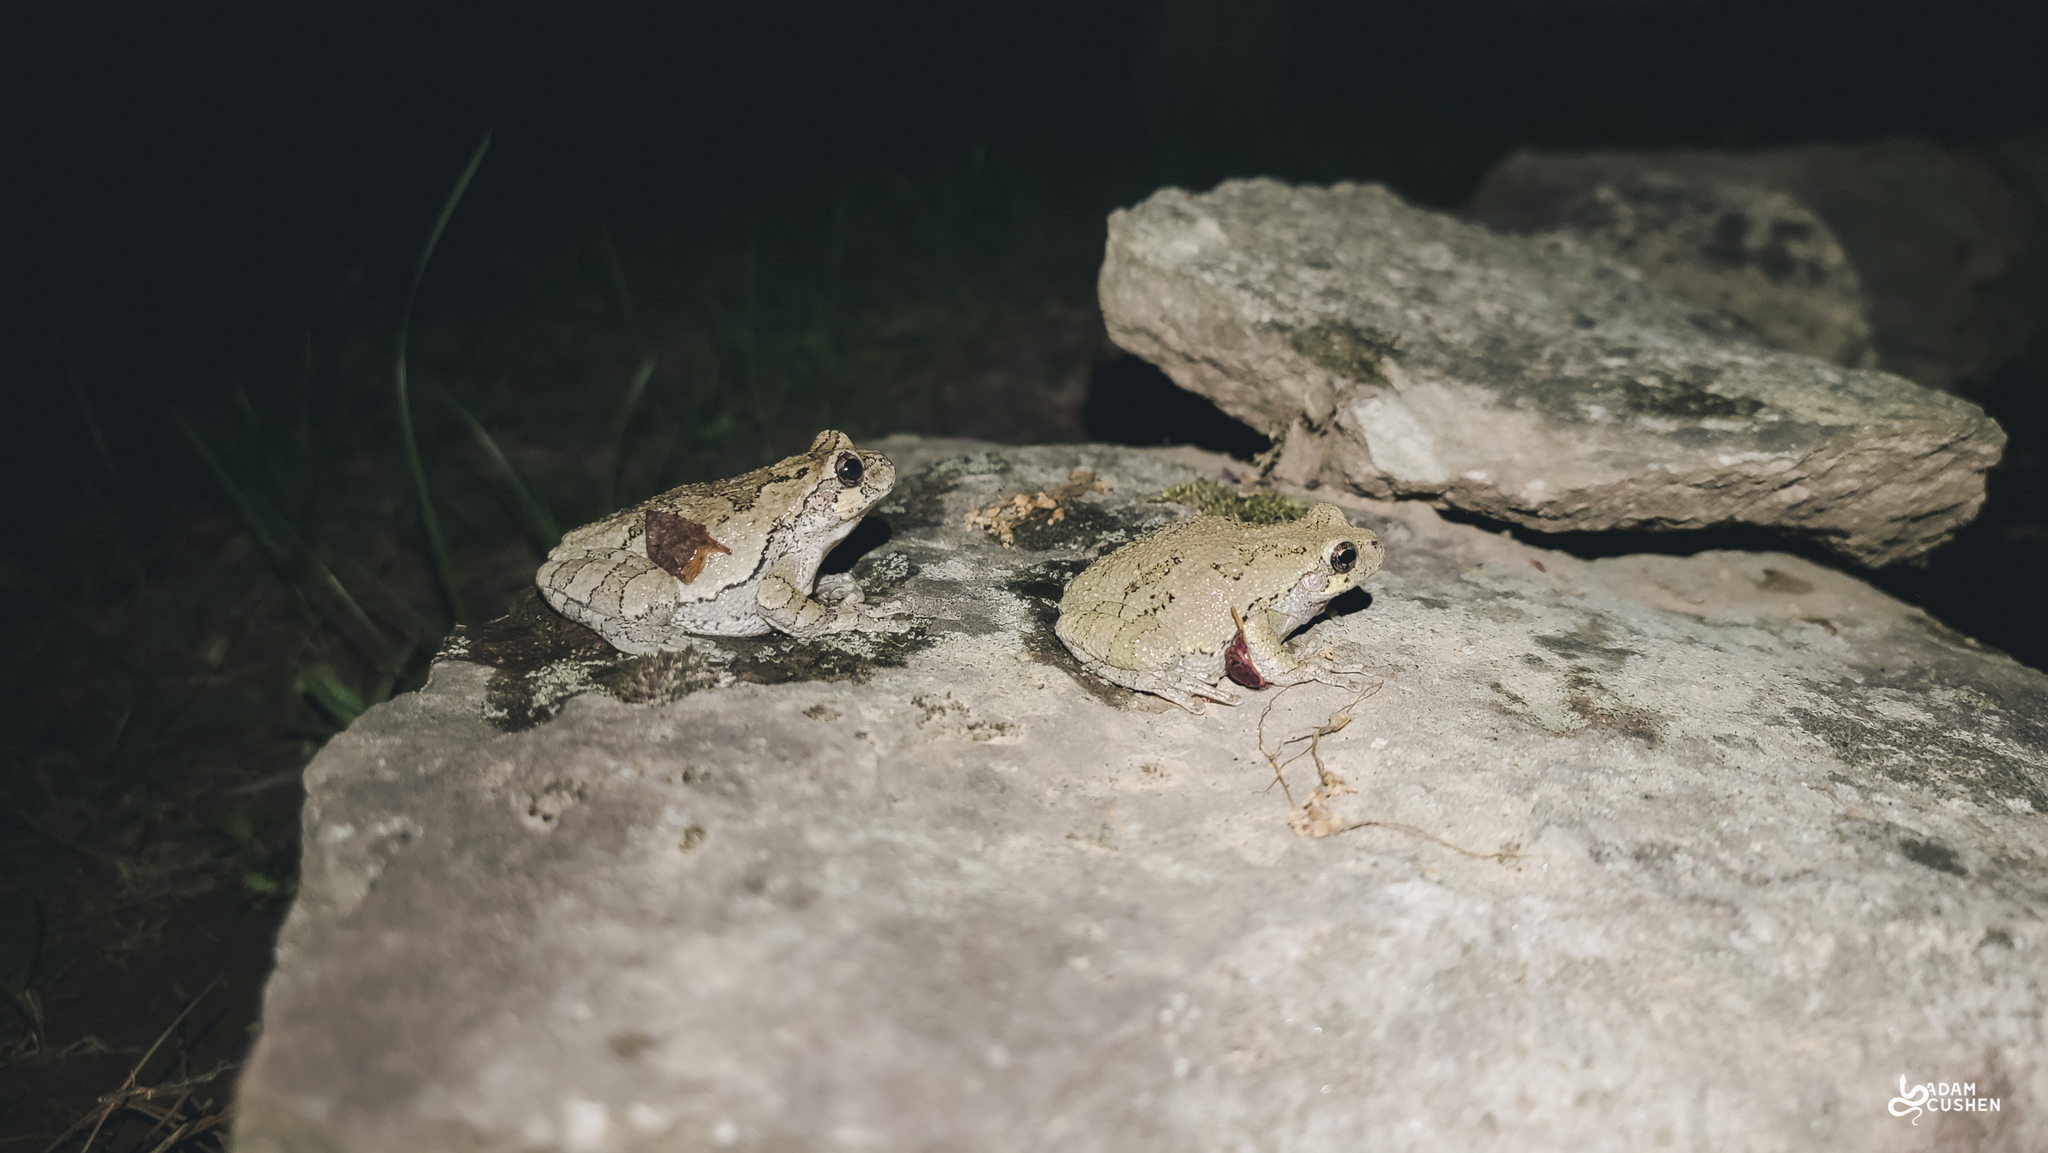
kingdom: Animalia
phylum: Chordata
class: Amphibia
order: Anura
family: Hylidae
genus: Dryophytes
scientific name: Dryophytes versicolor
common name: Gray treefrog
